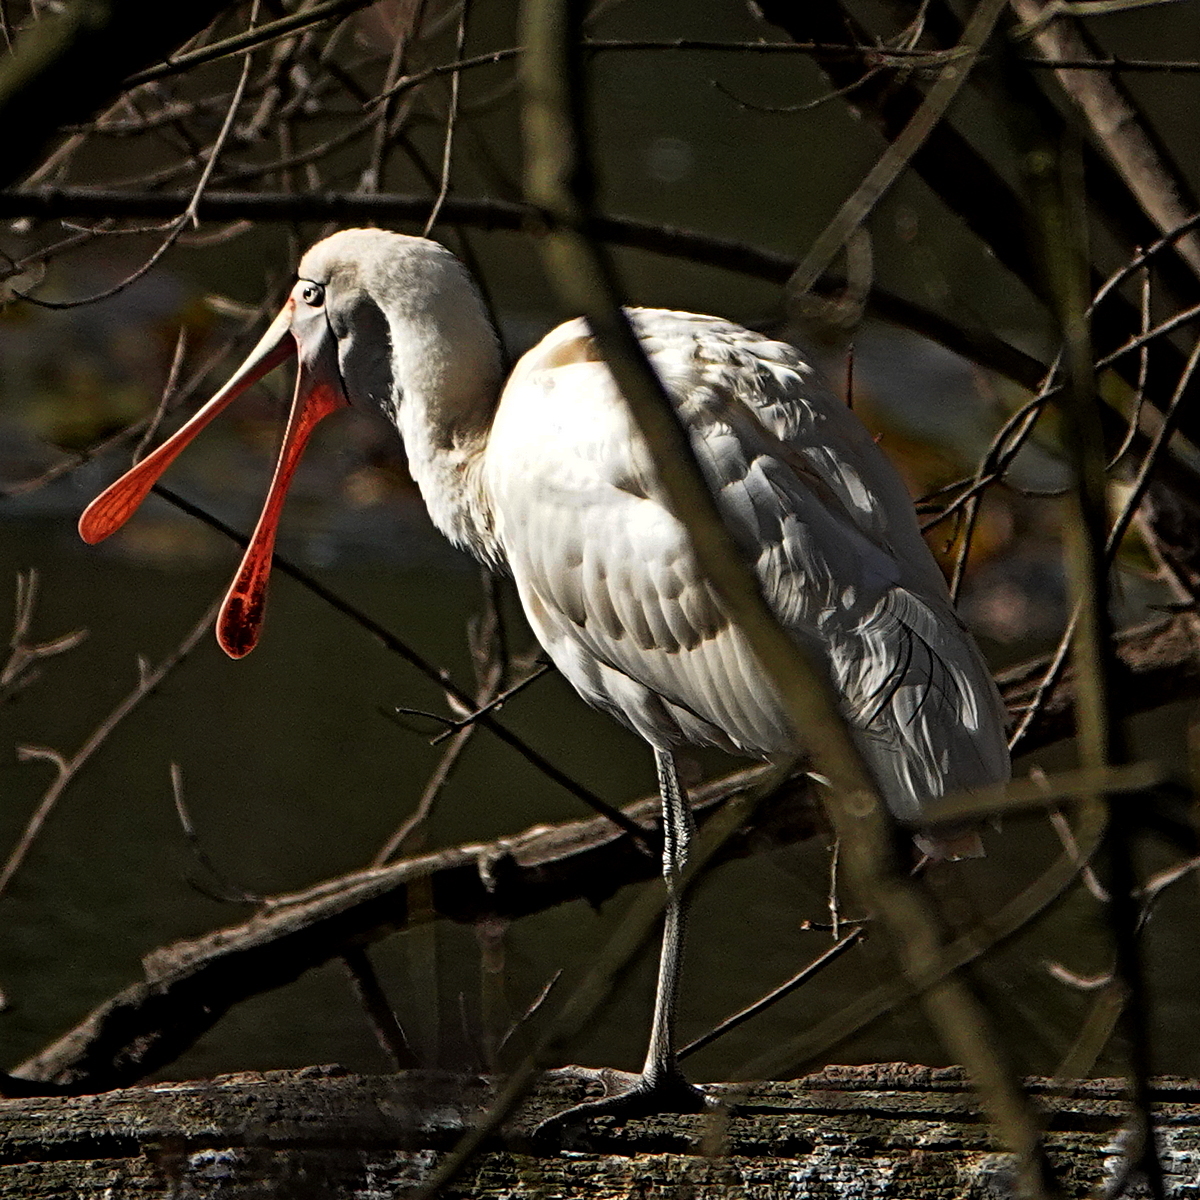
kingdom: Animalia
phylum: Chordata
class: Aves
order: Pelecaniformes
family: Threskiornithidae
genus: Platalea
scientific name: Platalea flavipes
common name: Yellow-billed spoonbill
